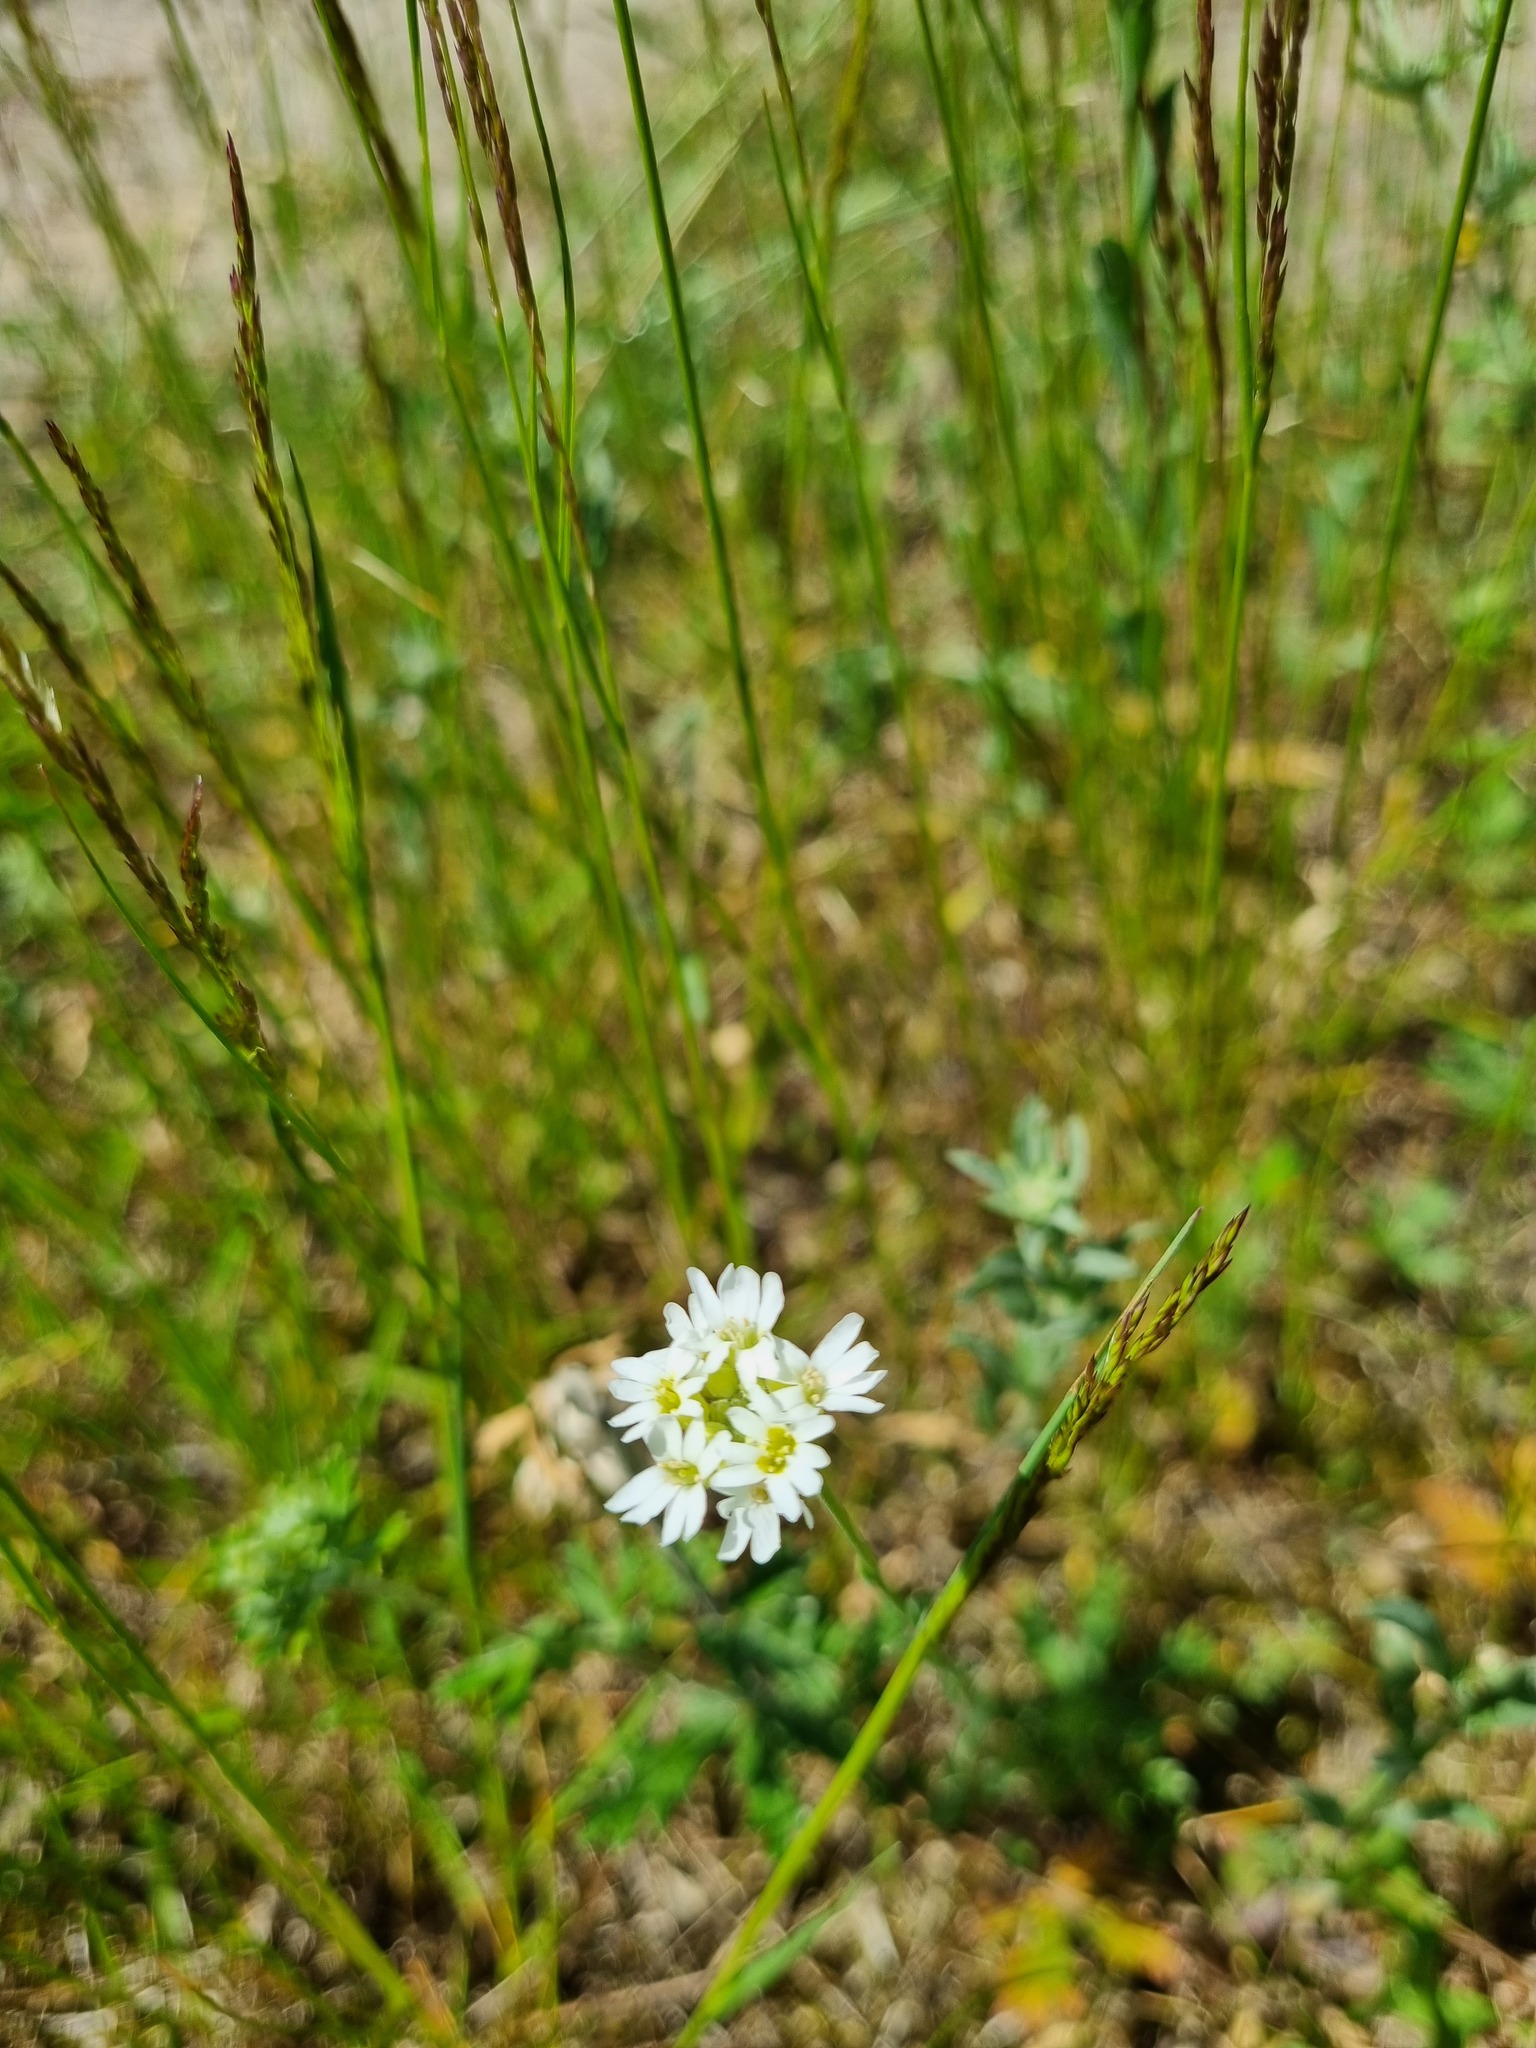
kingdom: Plantae
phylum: Tracheophyta
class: Magnoliopsida
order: Brassicales
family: Brassicaceae
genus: Berteroa
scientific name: Berteroa incana
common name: Hoary alison
